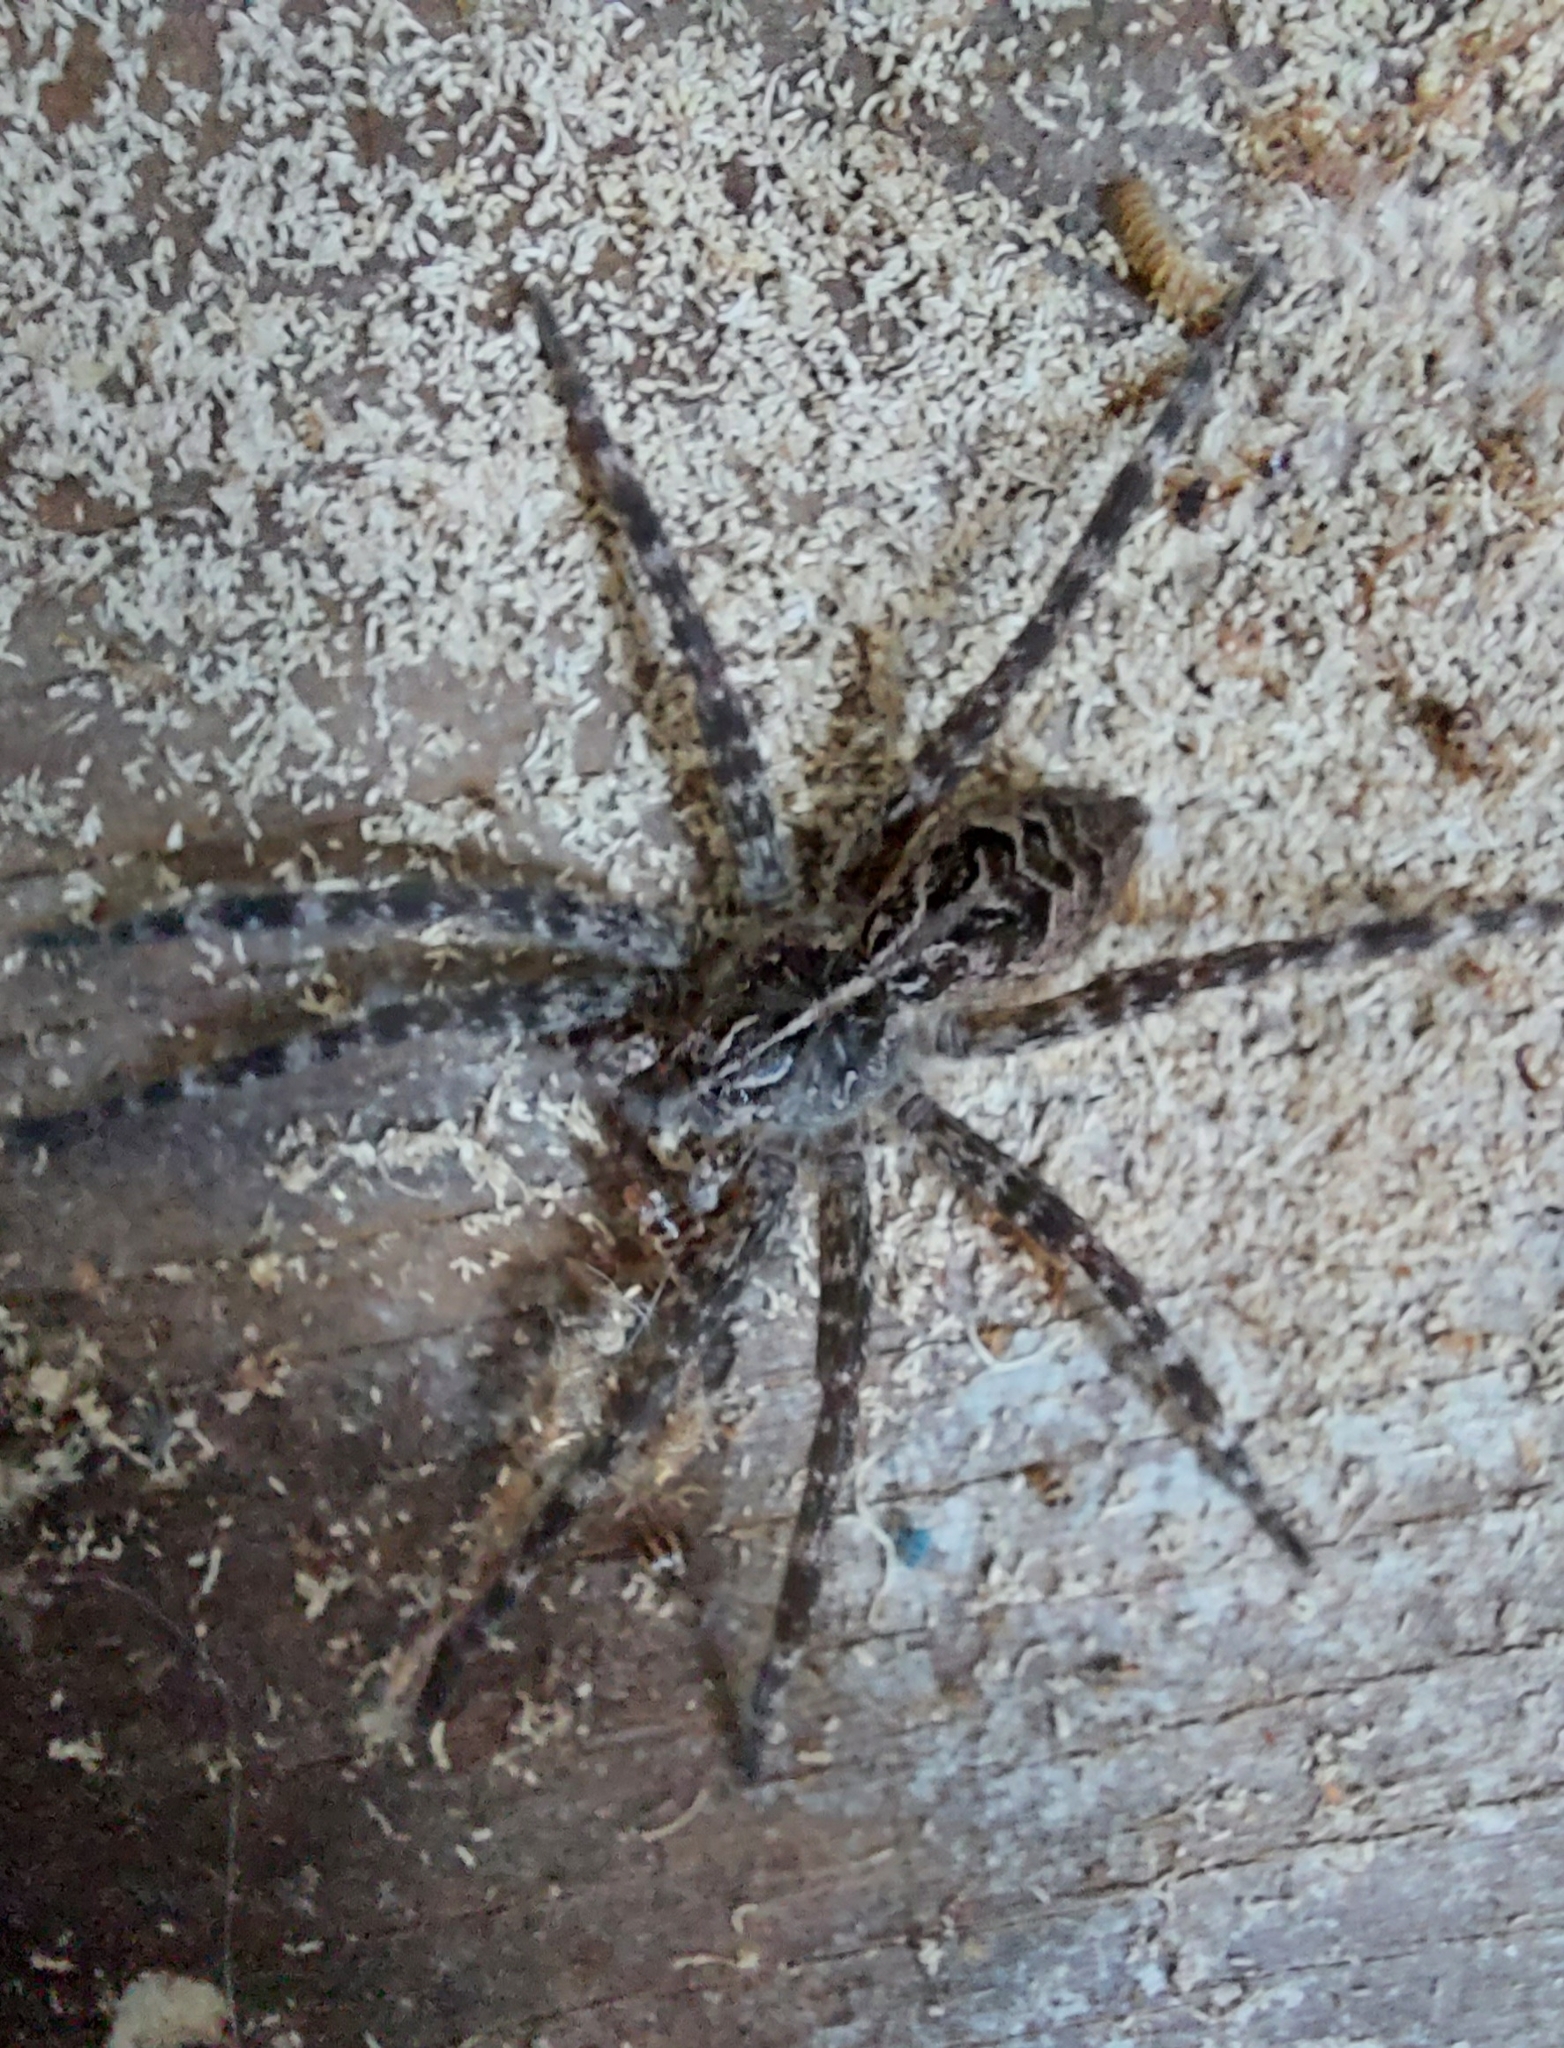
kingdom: Animalia
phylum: Arthropoda
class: Arachnida
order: Araneae
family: Pisauridae
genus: Dolomedes
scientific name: Dolomedes scriptus
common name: Striped fishing spider
